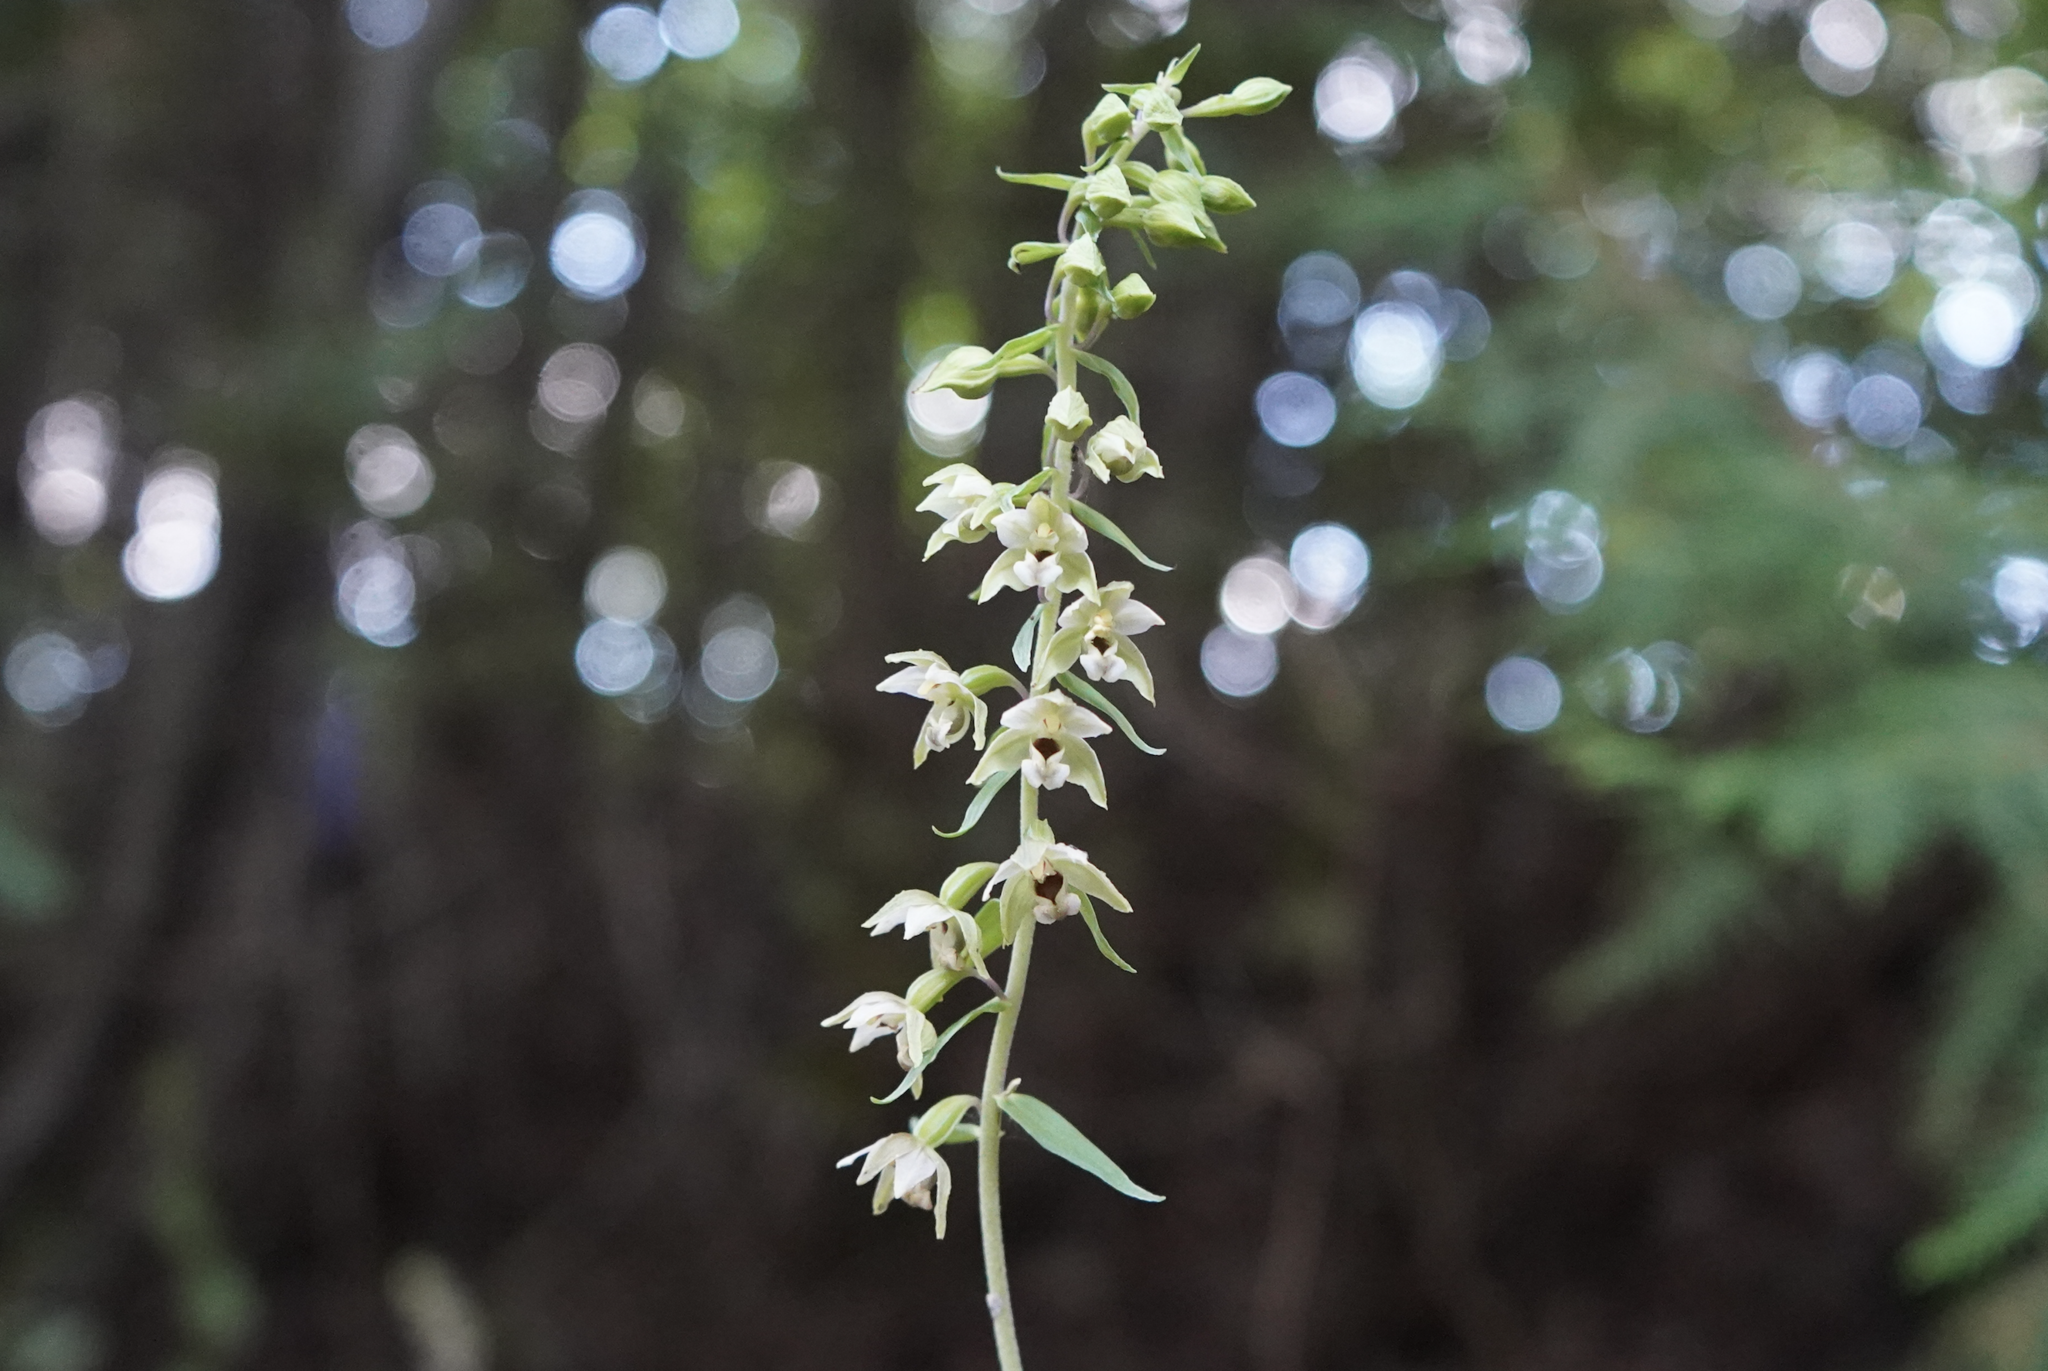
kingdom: Plantae
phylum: Tracheophyta
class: Liliopsida
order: Asparagales
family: Orchidaceae
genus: Epipactis
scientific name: Epipactis helleborine
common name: Broad-leaved helleborine
